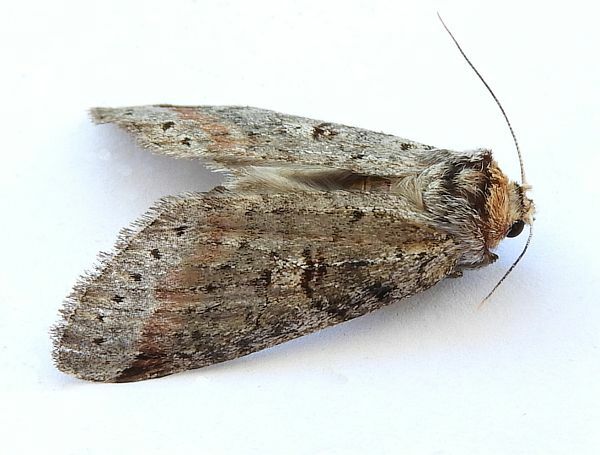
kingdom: Animalia
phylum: Arthropoda
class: Insecta
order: Lepidoptera
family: Notodontidae
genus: Scevesia
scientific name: Scevesia angustiora
